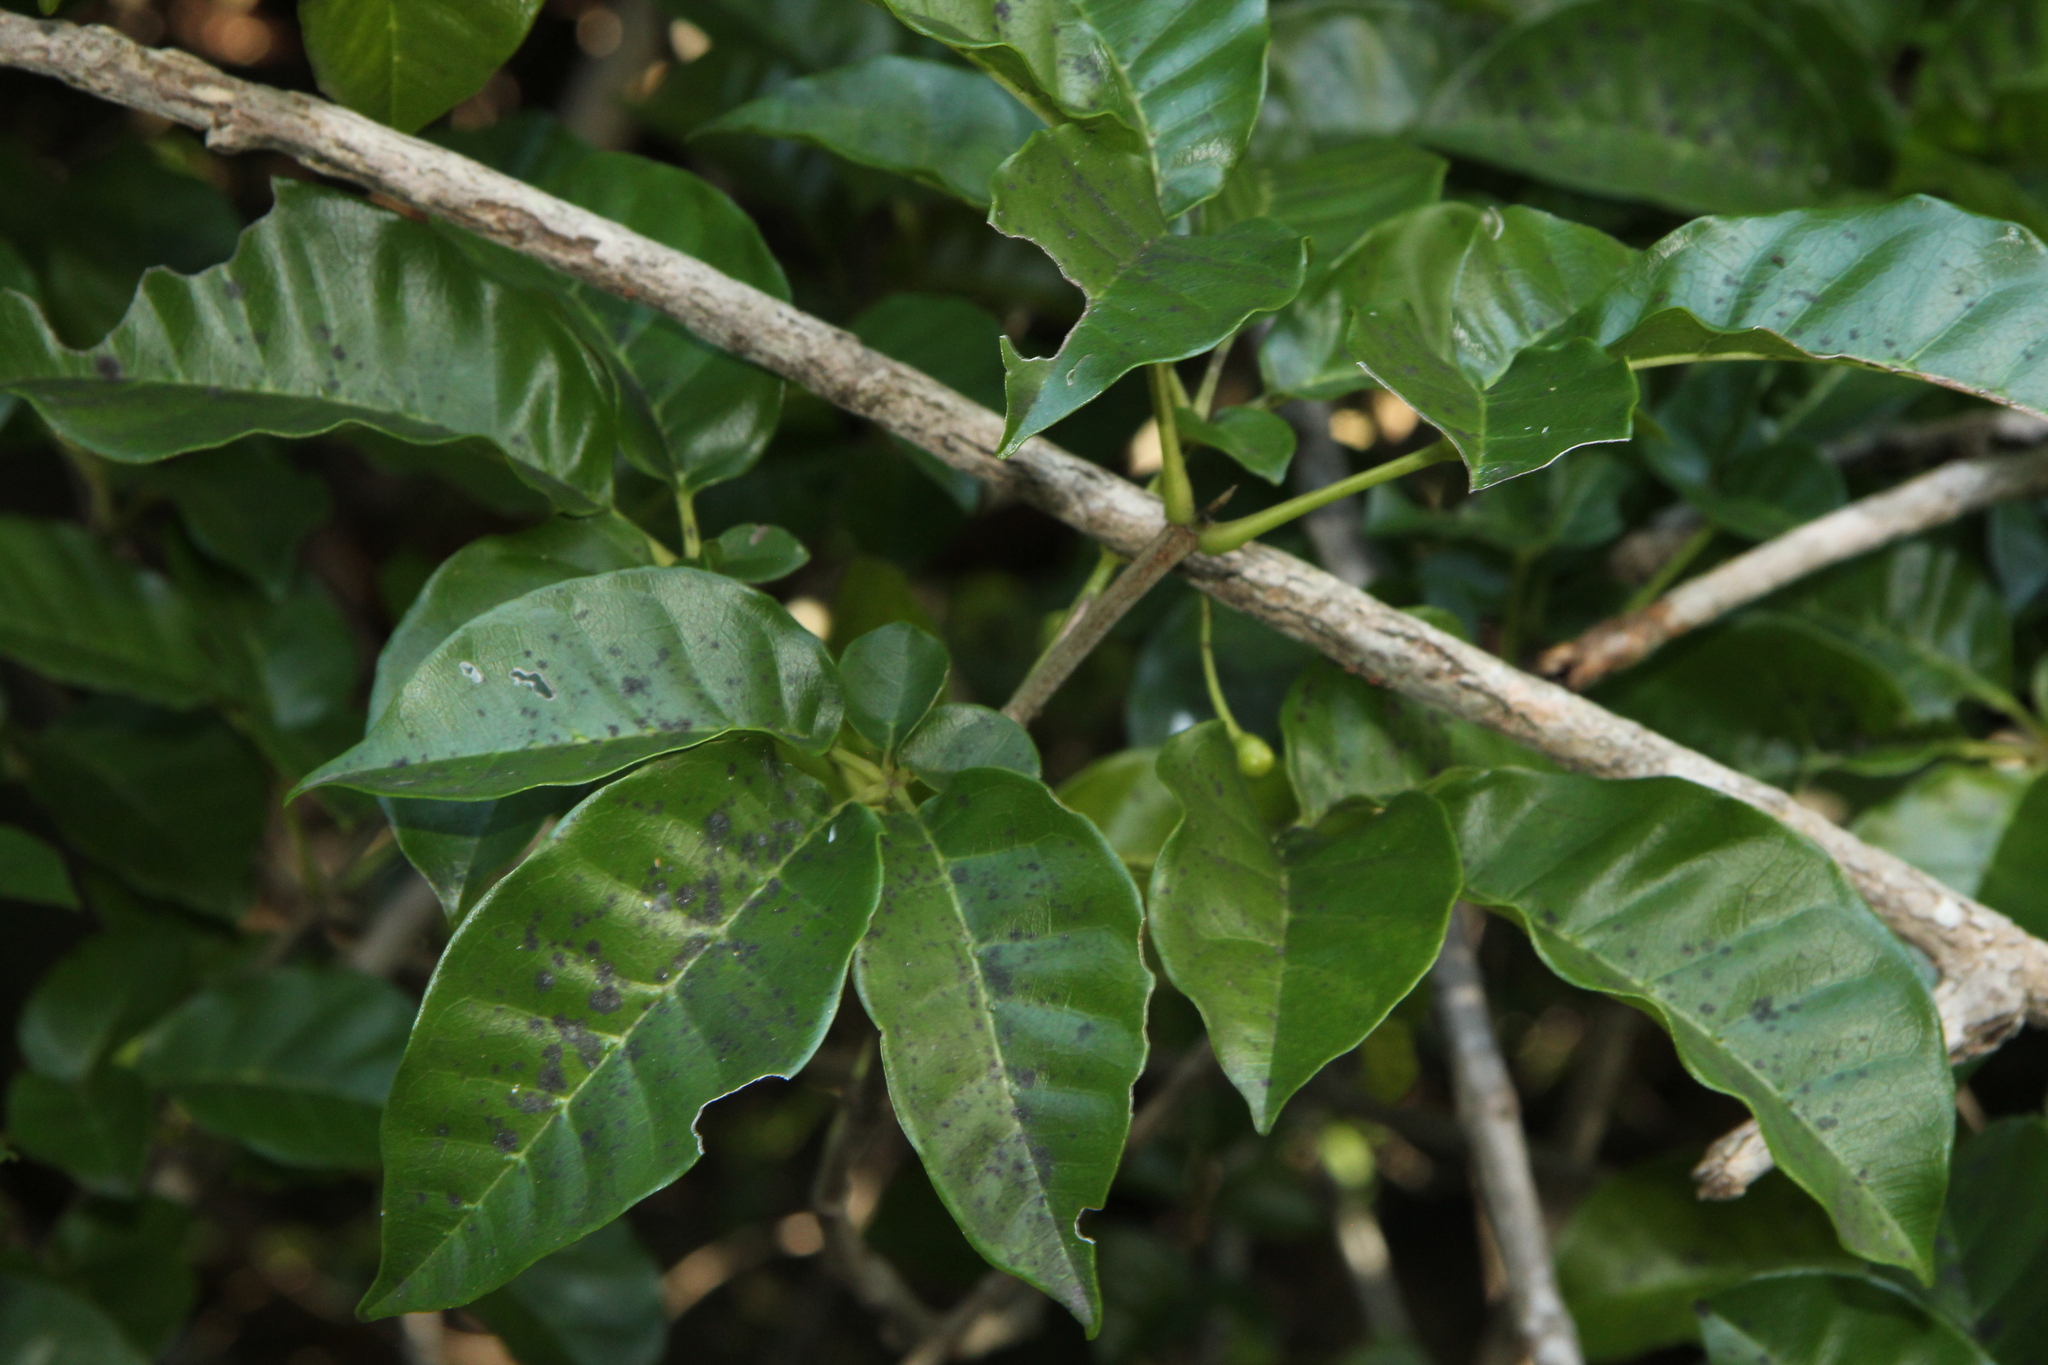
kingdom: Plantae
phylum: Tracheophyta
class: Magnoliopsida
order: Lamiales
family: Lamiaceae
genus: Vitex
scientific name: Vitex lucens
